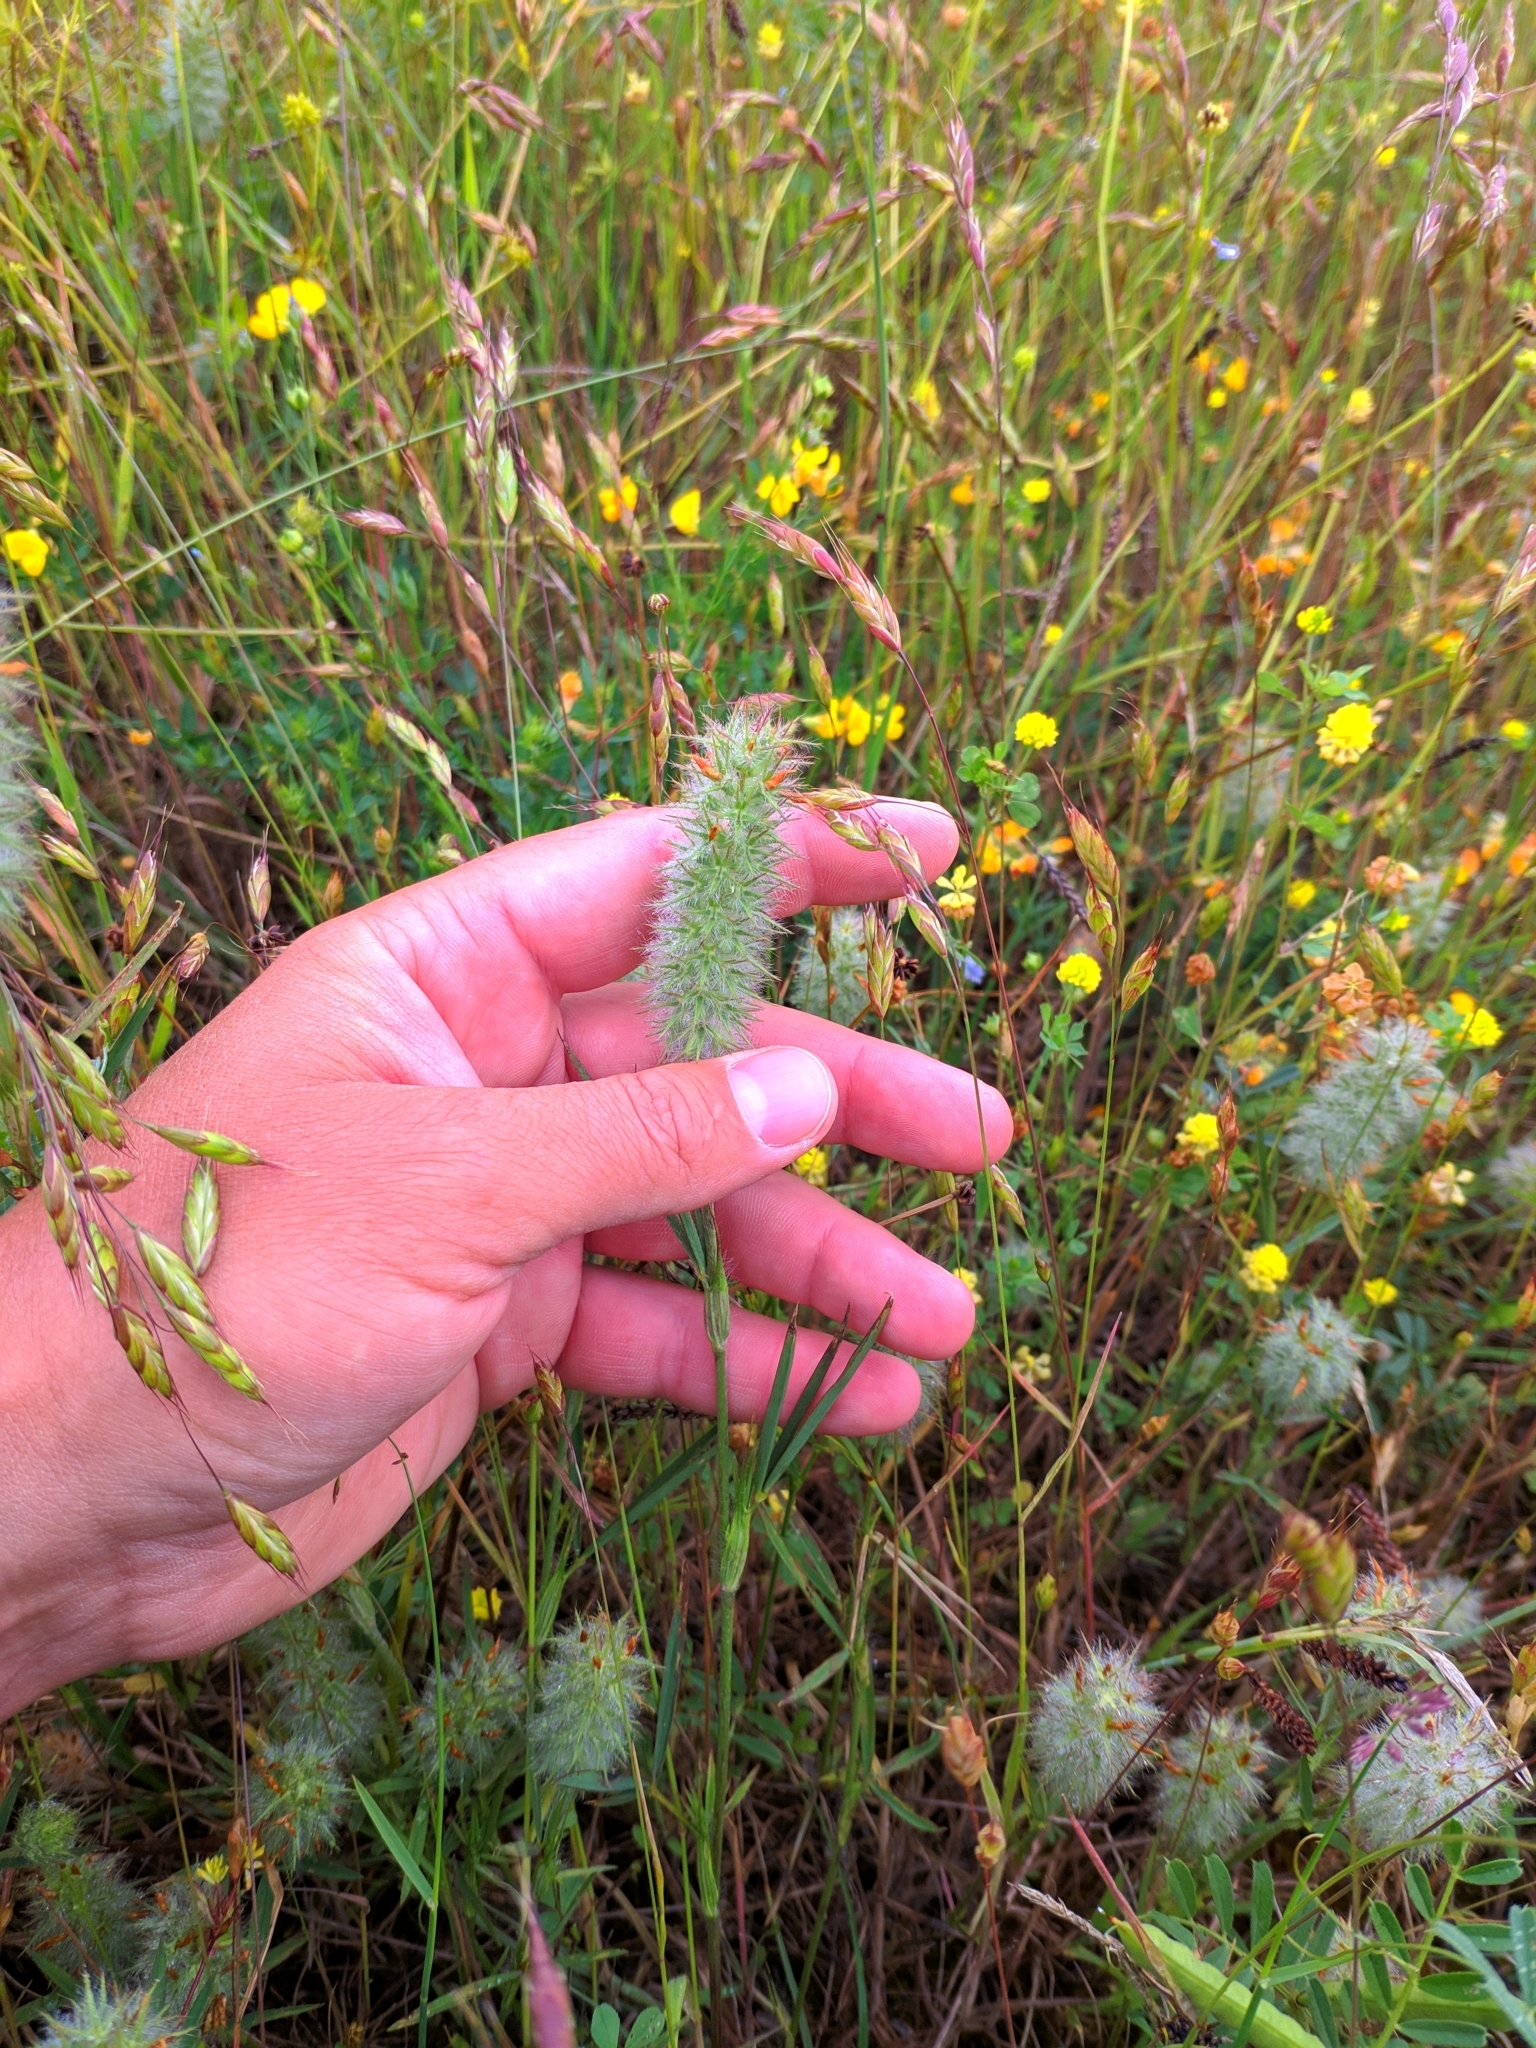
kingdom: Plantae
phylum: Tracheophyta
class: Magnoliopsida
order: Fabales
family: Fabaceae
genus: Trifolium
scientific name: Trifolium angustifolium
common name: Narrow clover
